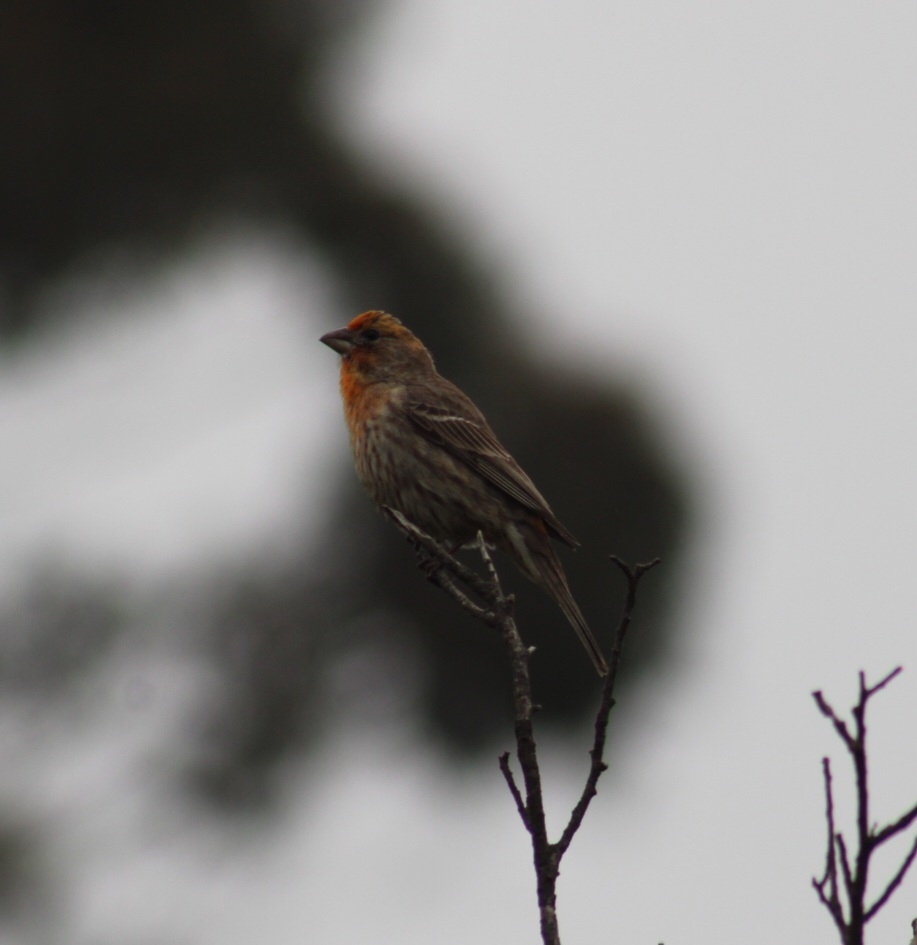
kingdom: Animalia
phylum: Chordata
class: Aves
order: Passeriformes
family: Fringillidae
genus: Haemorhous
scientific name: Haemorhous mexicanus
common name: House finch
